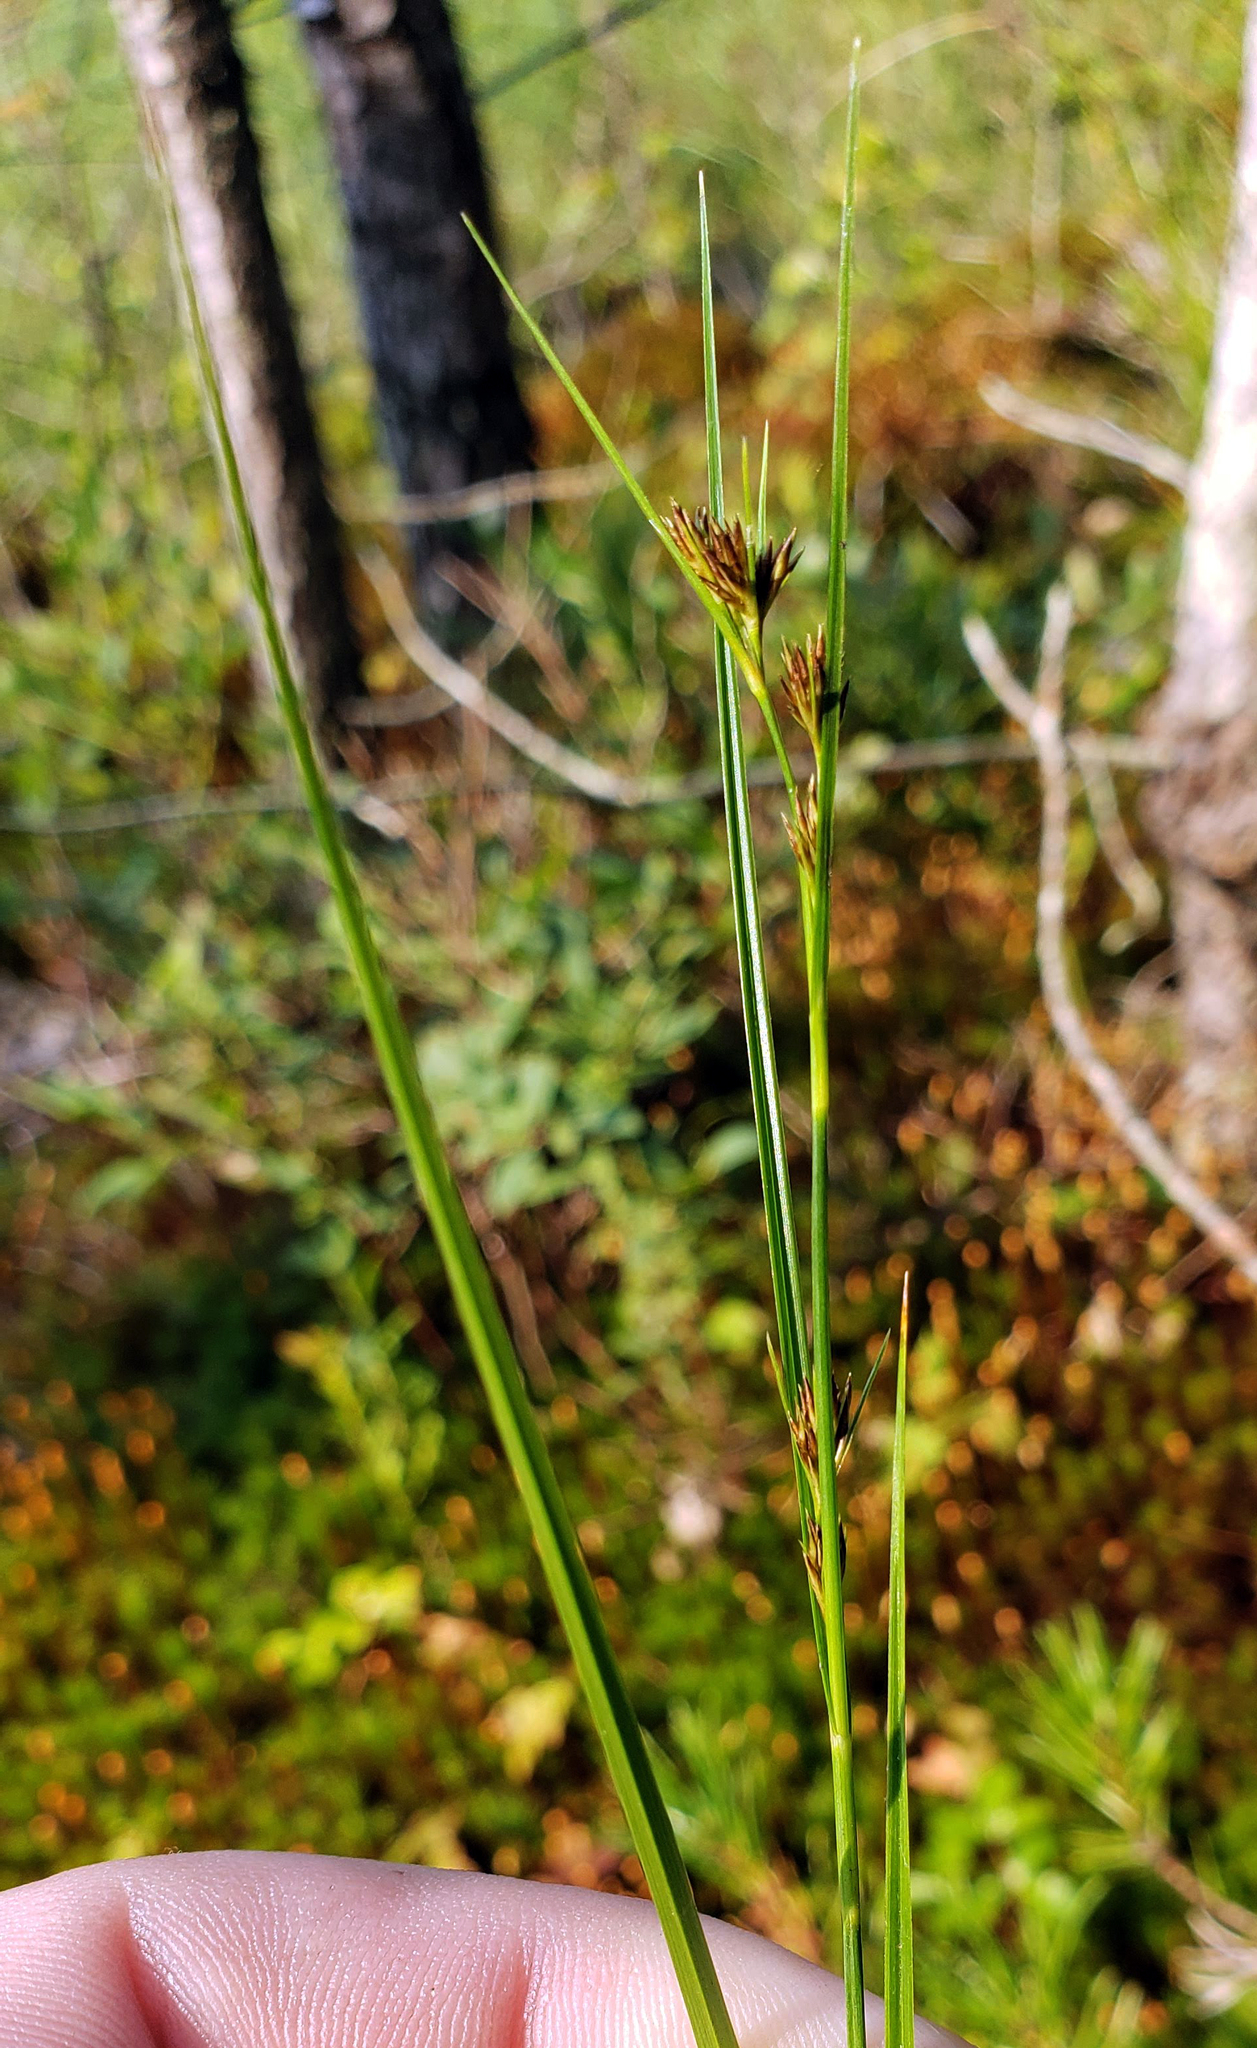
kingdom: Plantae
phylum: Tracheophyta
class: Liliopsida
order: Poales
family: Cyperaceae
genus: Rhynchospora
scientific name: Rhynchospora capitellata
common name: Brownish beaksedge
